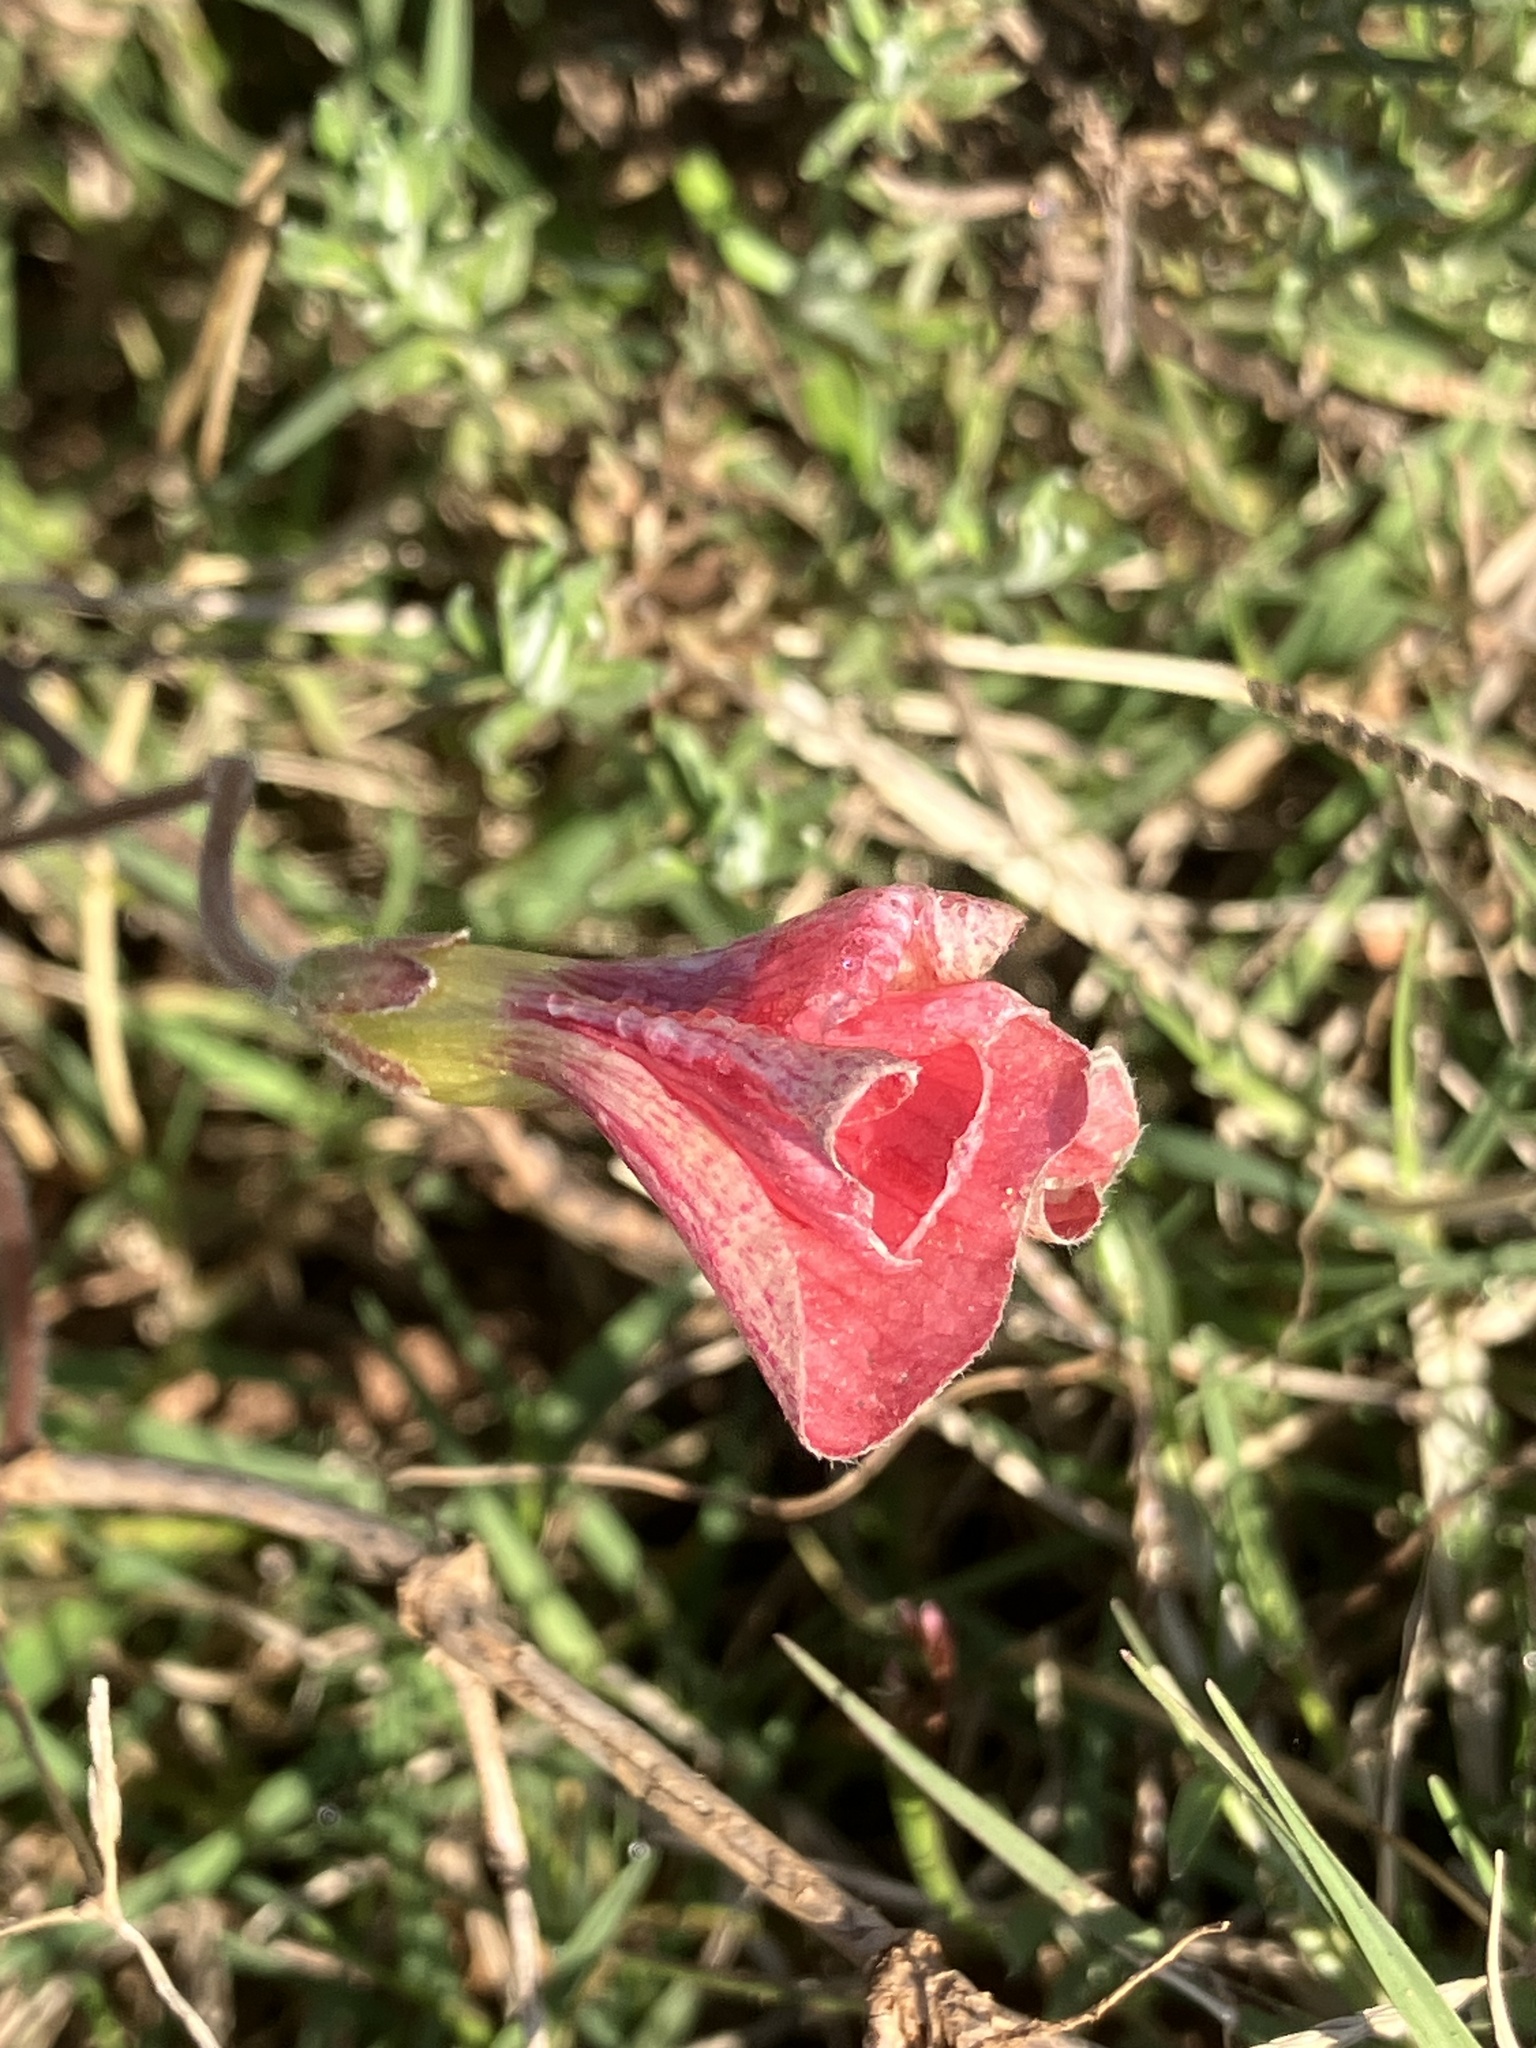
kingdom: Plantae
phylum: Tracheophyta
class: Magnoliopsida
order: Oxalidales
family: Oxalidaceae
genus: Oxalis
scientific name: Oxalis obtusa
